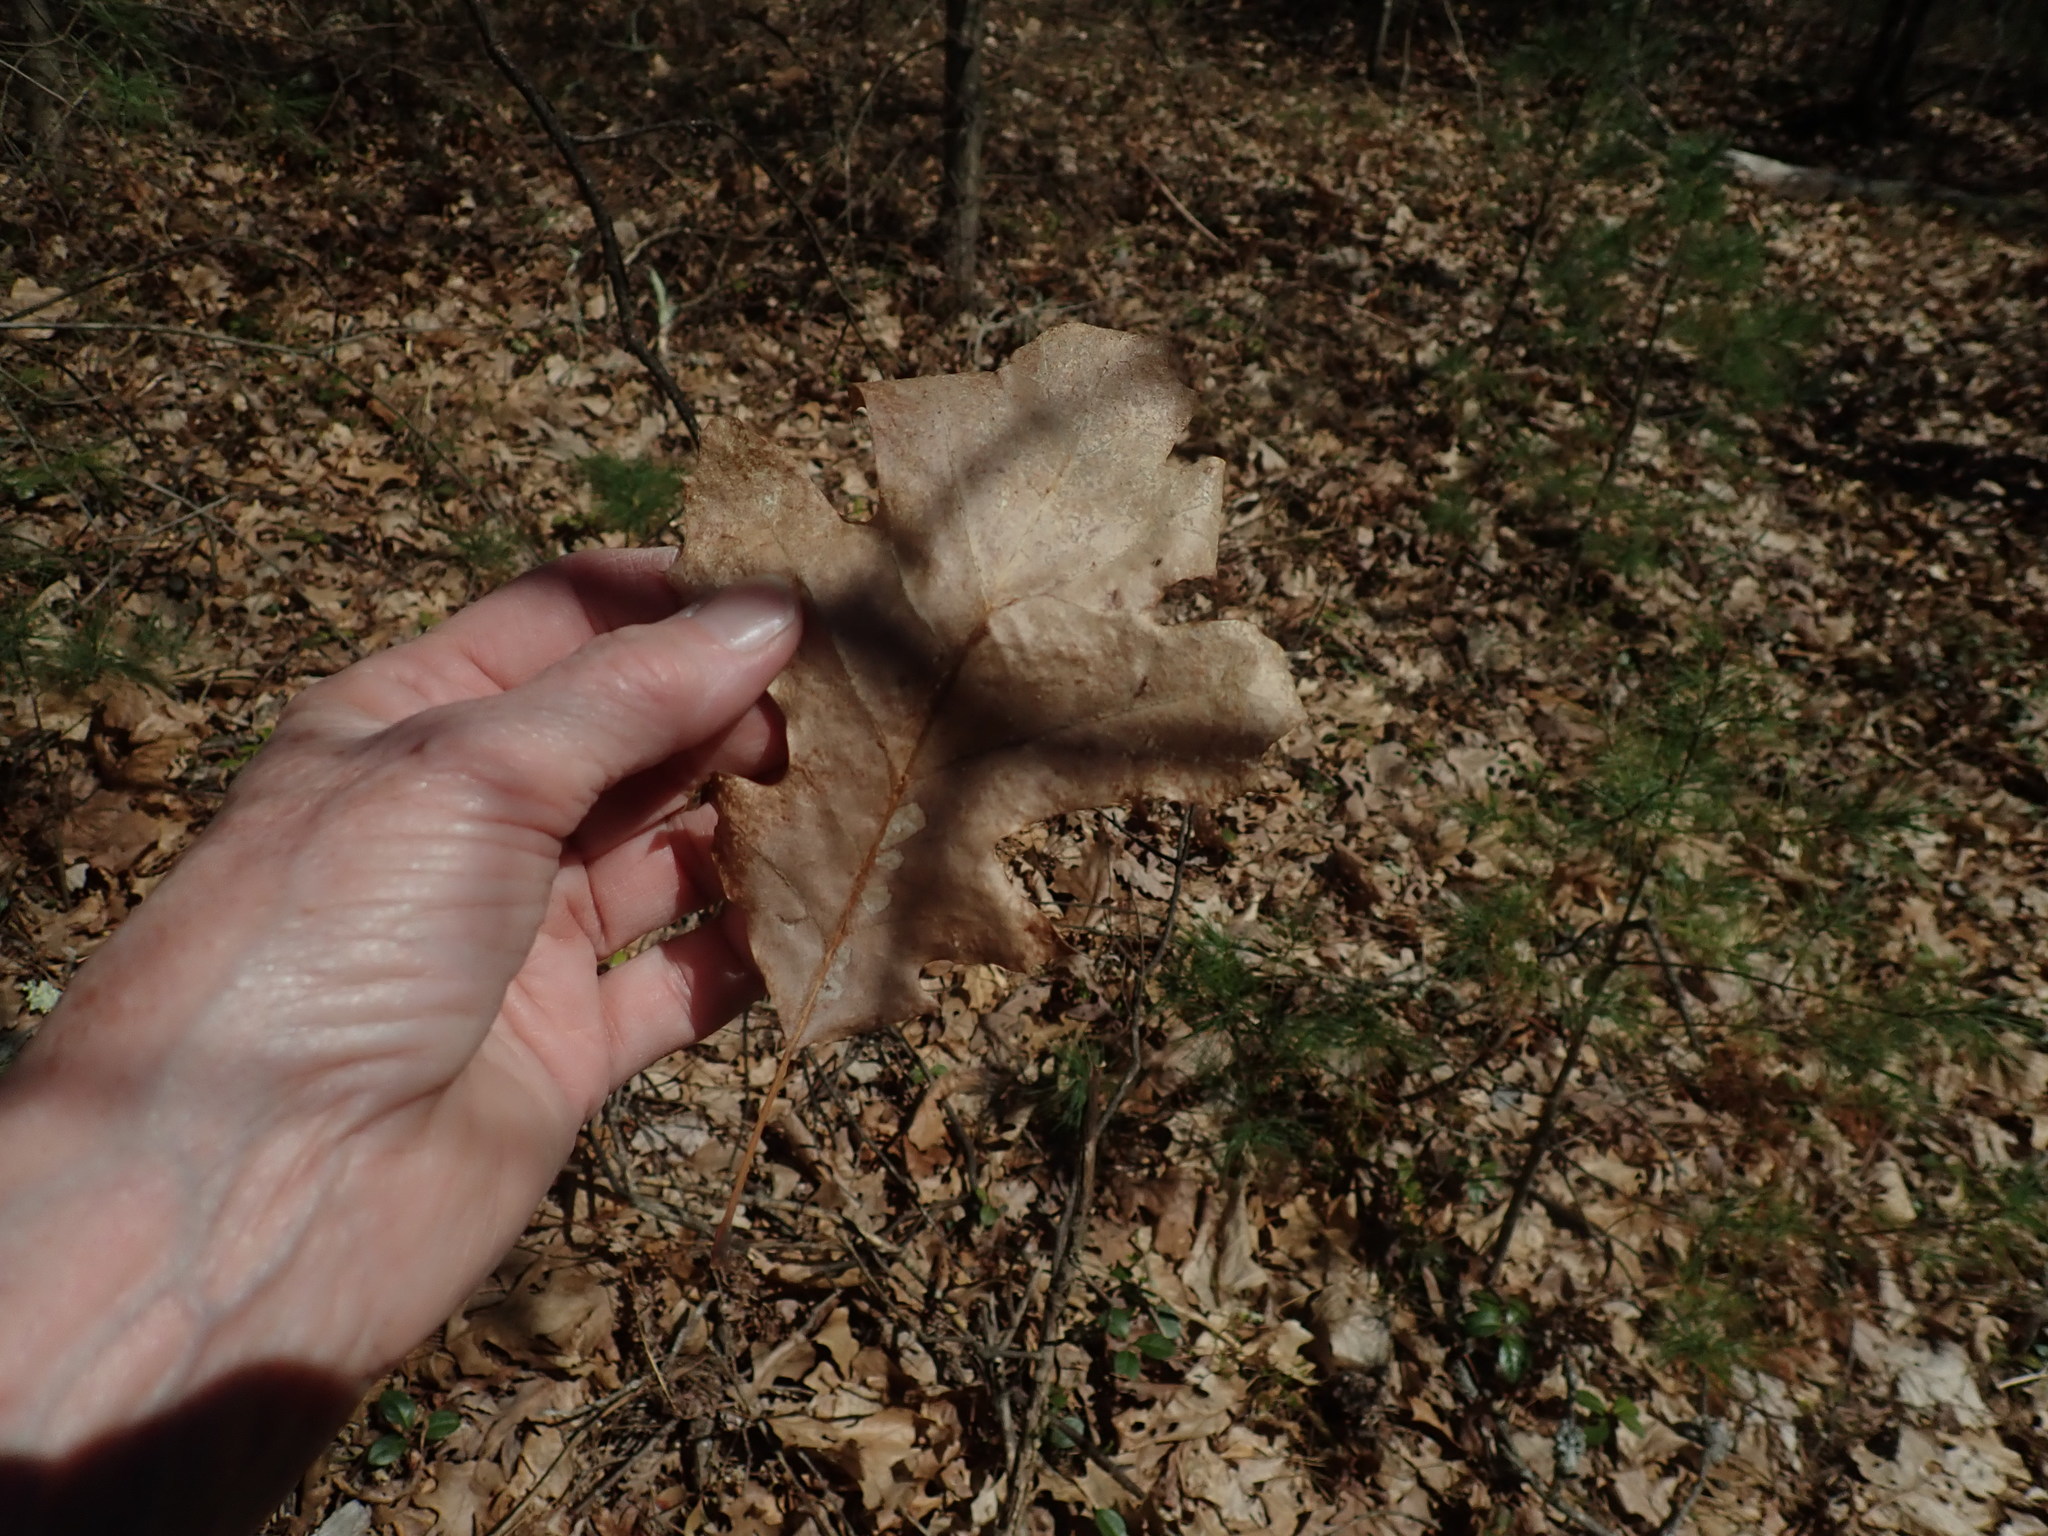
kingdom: Plantae
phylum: Tracheophyta
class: Magnoliopsida
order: Fagales
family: Fagaceae
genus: Quercus
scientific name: Quercus velutina
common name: Black oak
